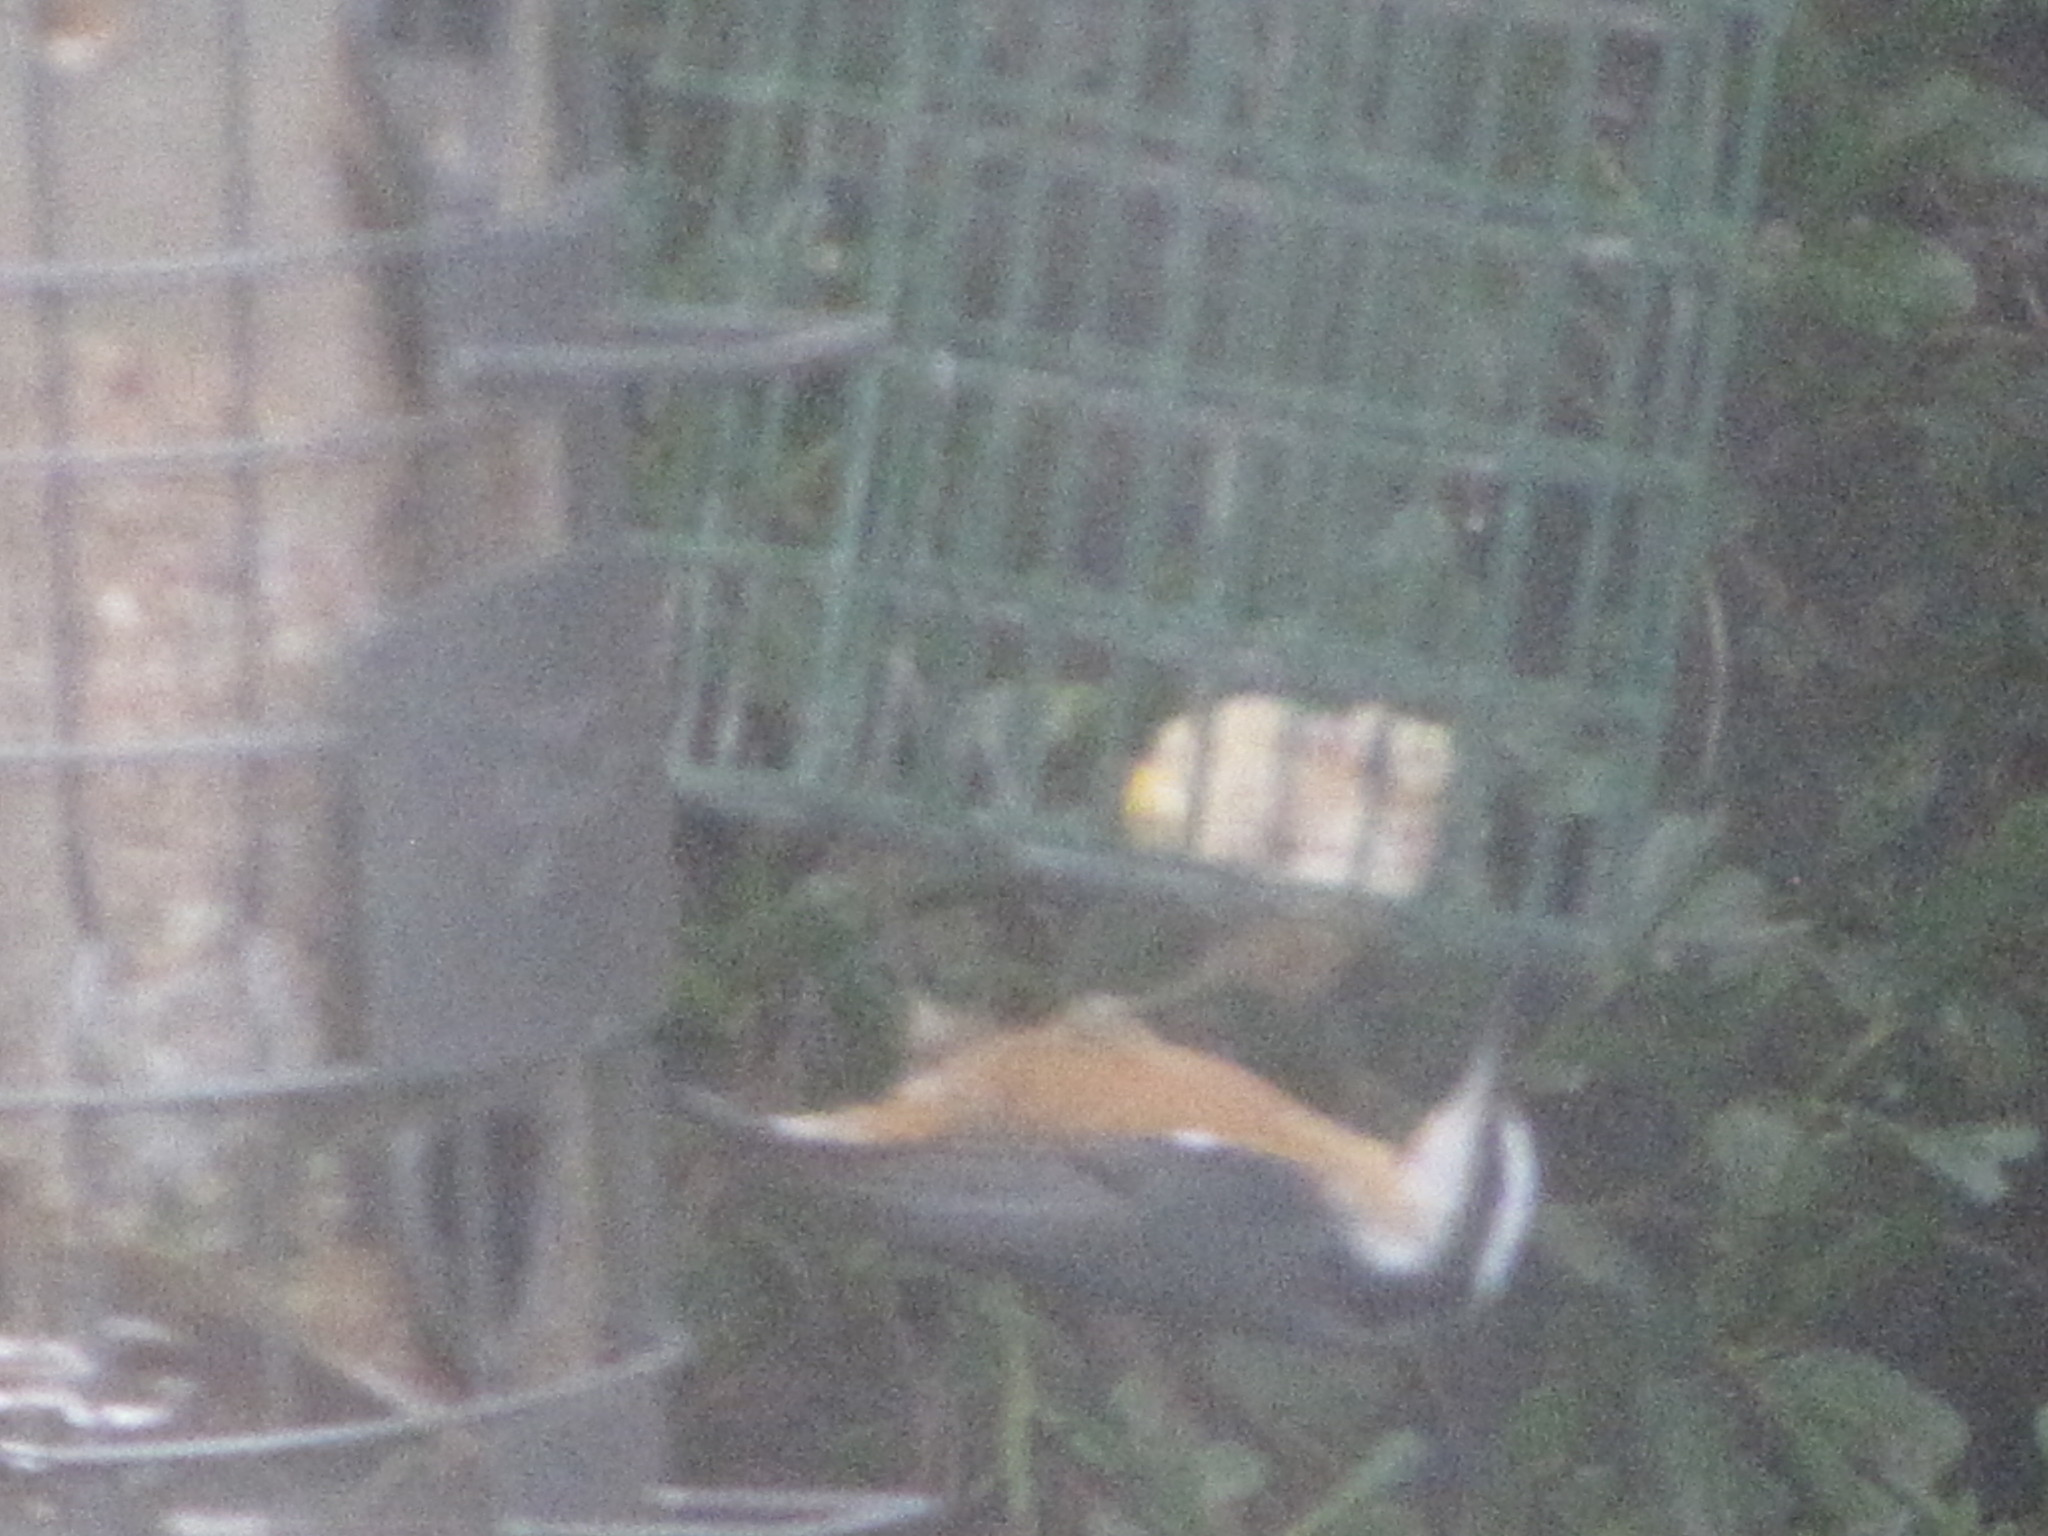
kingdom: Animalia
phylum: Chordata
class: Aves
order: Passeriformes
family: Sittidae
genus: Sitta
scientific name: Sitta canadensis
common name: Red-breasted nuthatch
